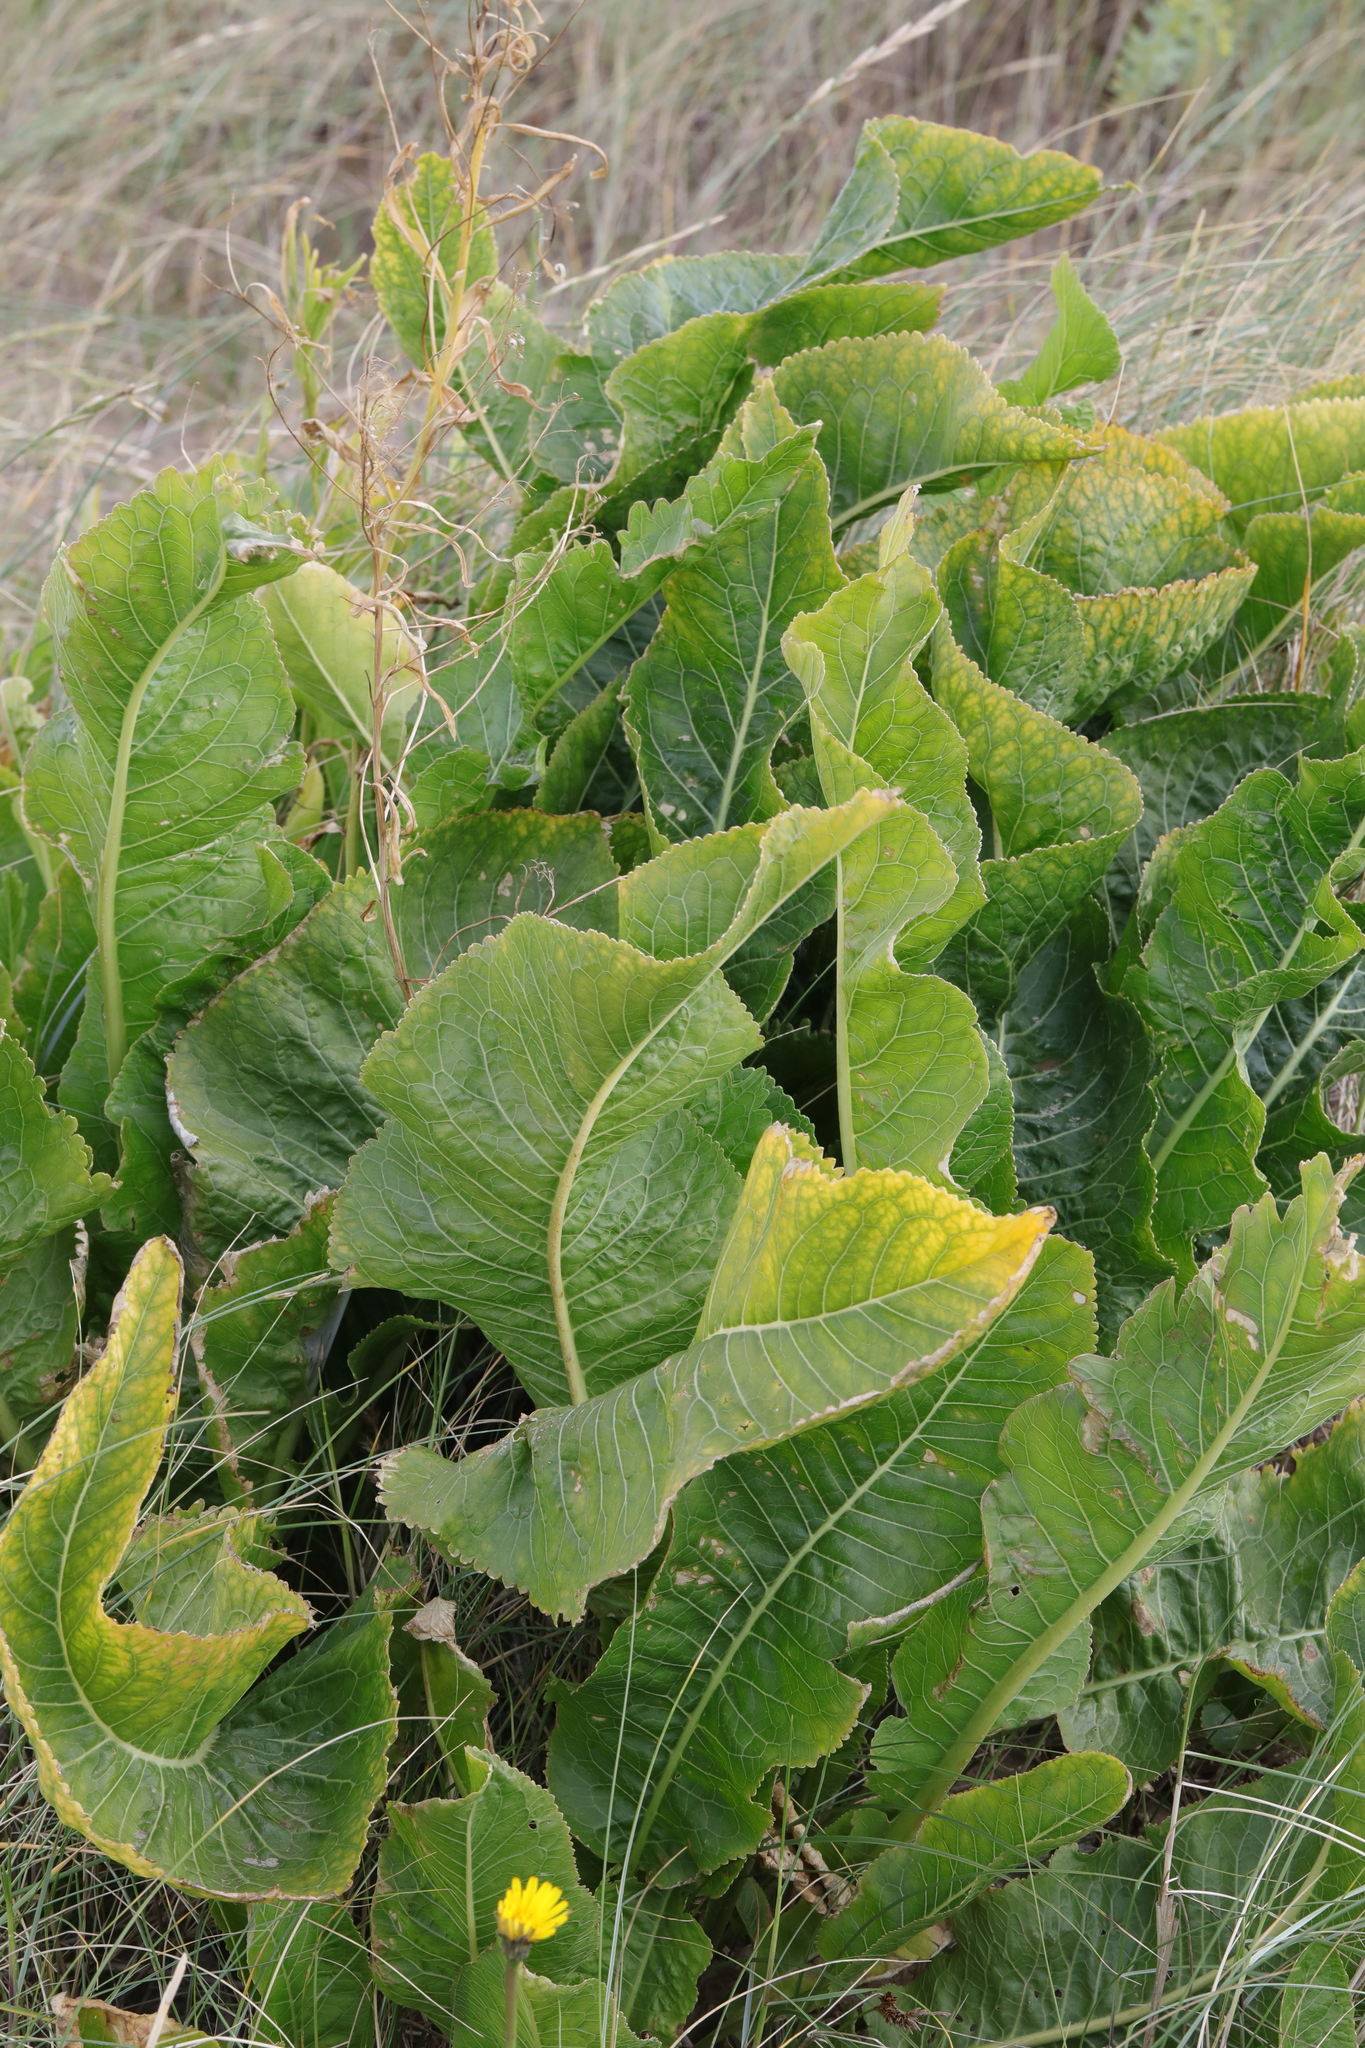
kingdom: Plantae
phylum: Tracheophyta
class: Magnoliopsida
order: Brassicales
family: Brassicaceae
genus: Armoracia
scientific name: Armoracia rusticana
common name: Horseradish
